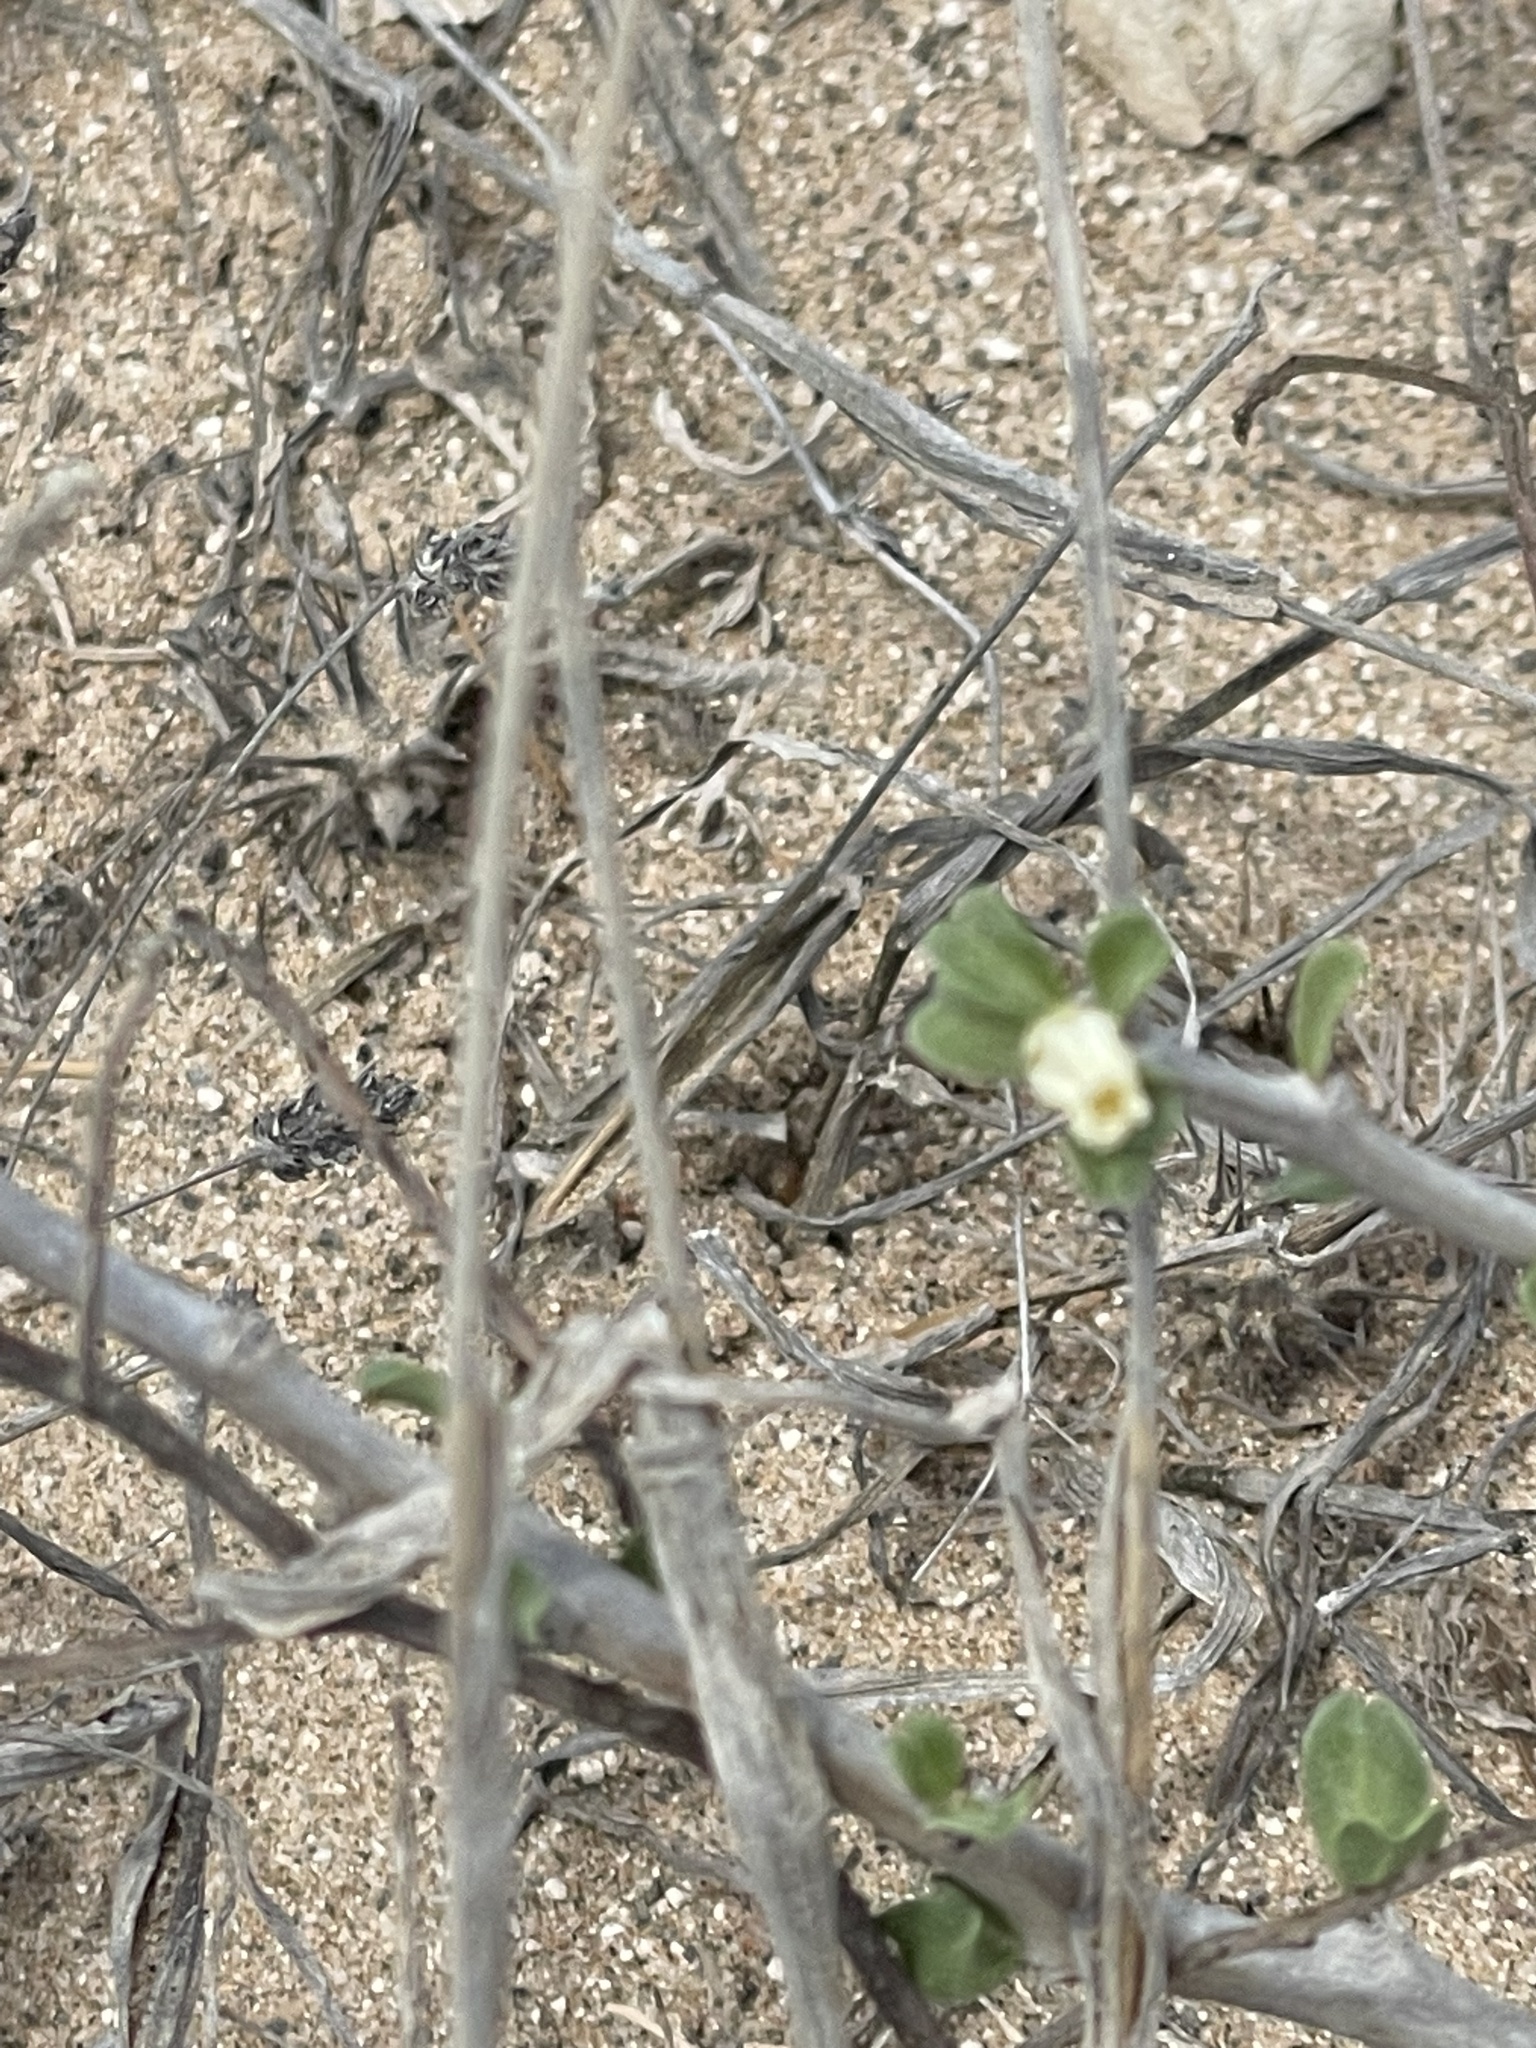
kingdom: Plantae
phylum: Tracheophyta
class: Magnoliopsida
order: Malpighiales
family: Euphorbiaceae
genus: Jatropha
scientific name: Jatropha cuneata
